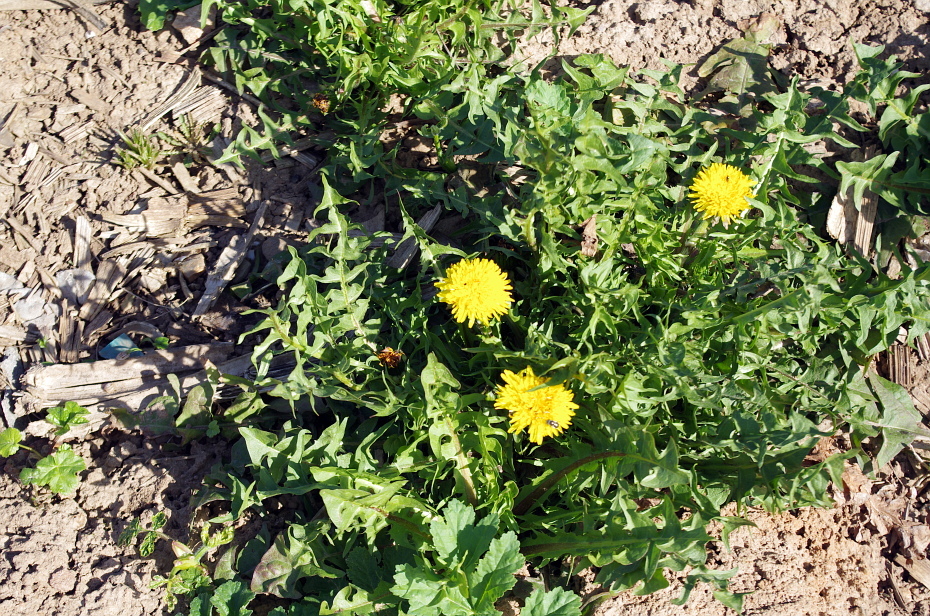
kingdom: Plantae
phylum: Tracheophyta
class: Magnoliopsida
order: Asterales
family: Asteraceae
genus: Taraxacum
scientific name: Taraxacum officinale
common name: Common dandelion
